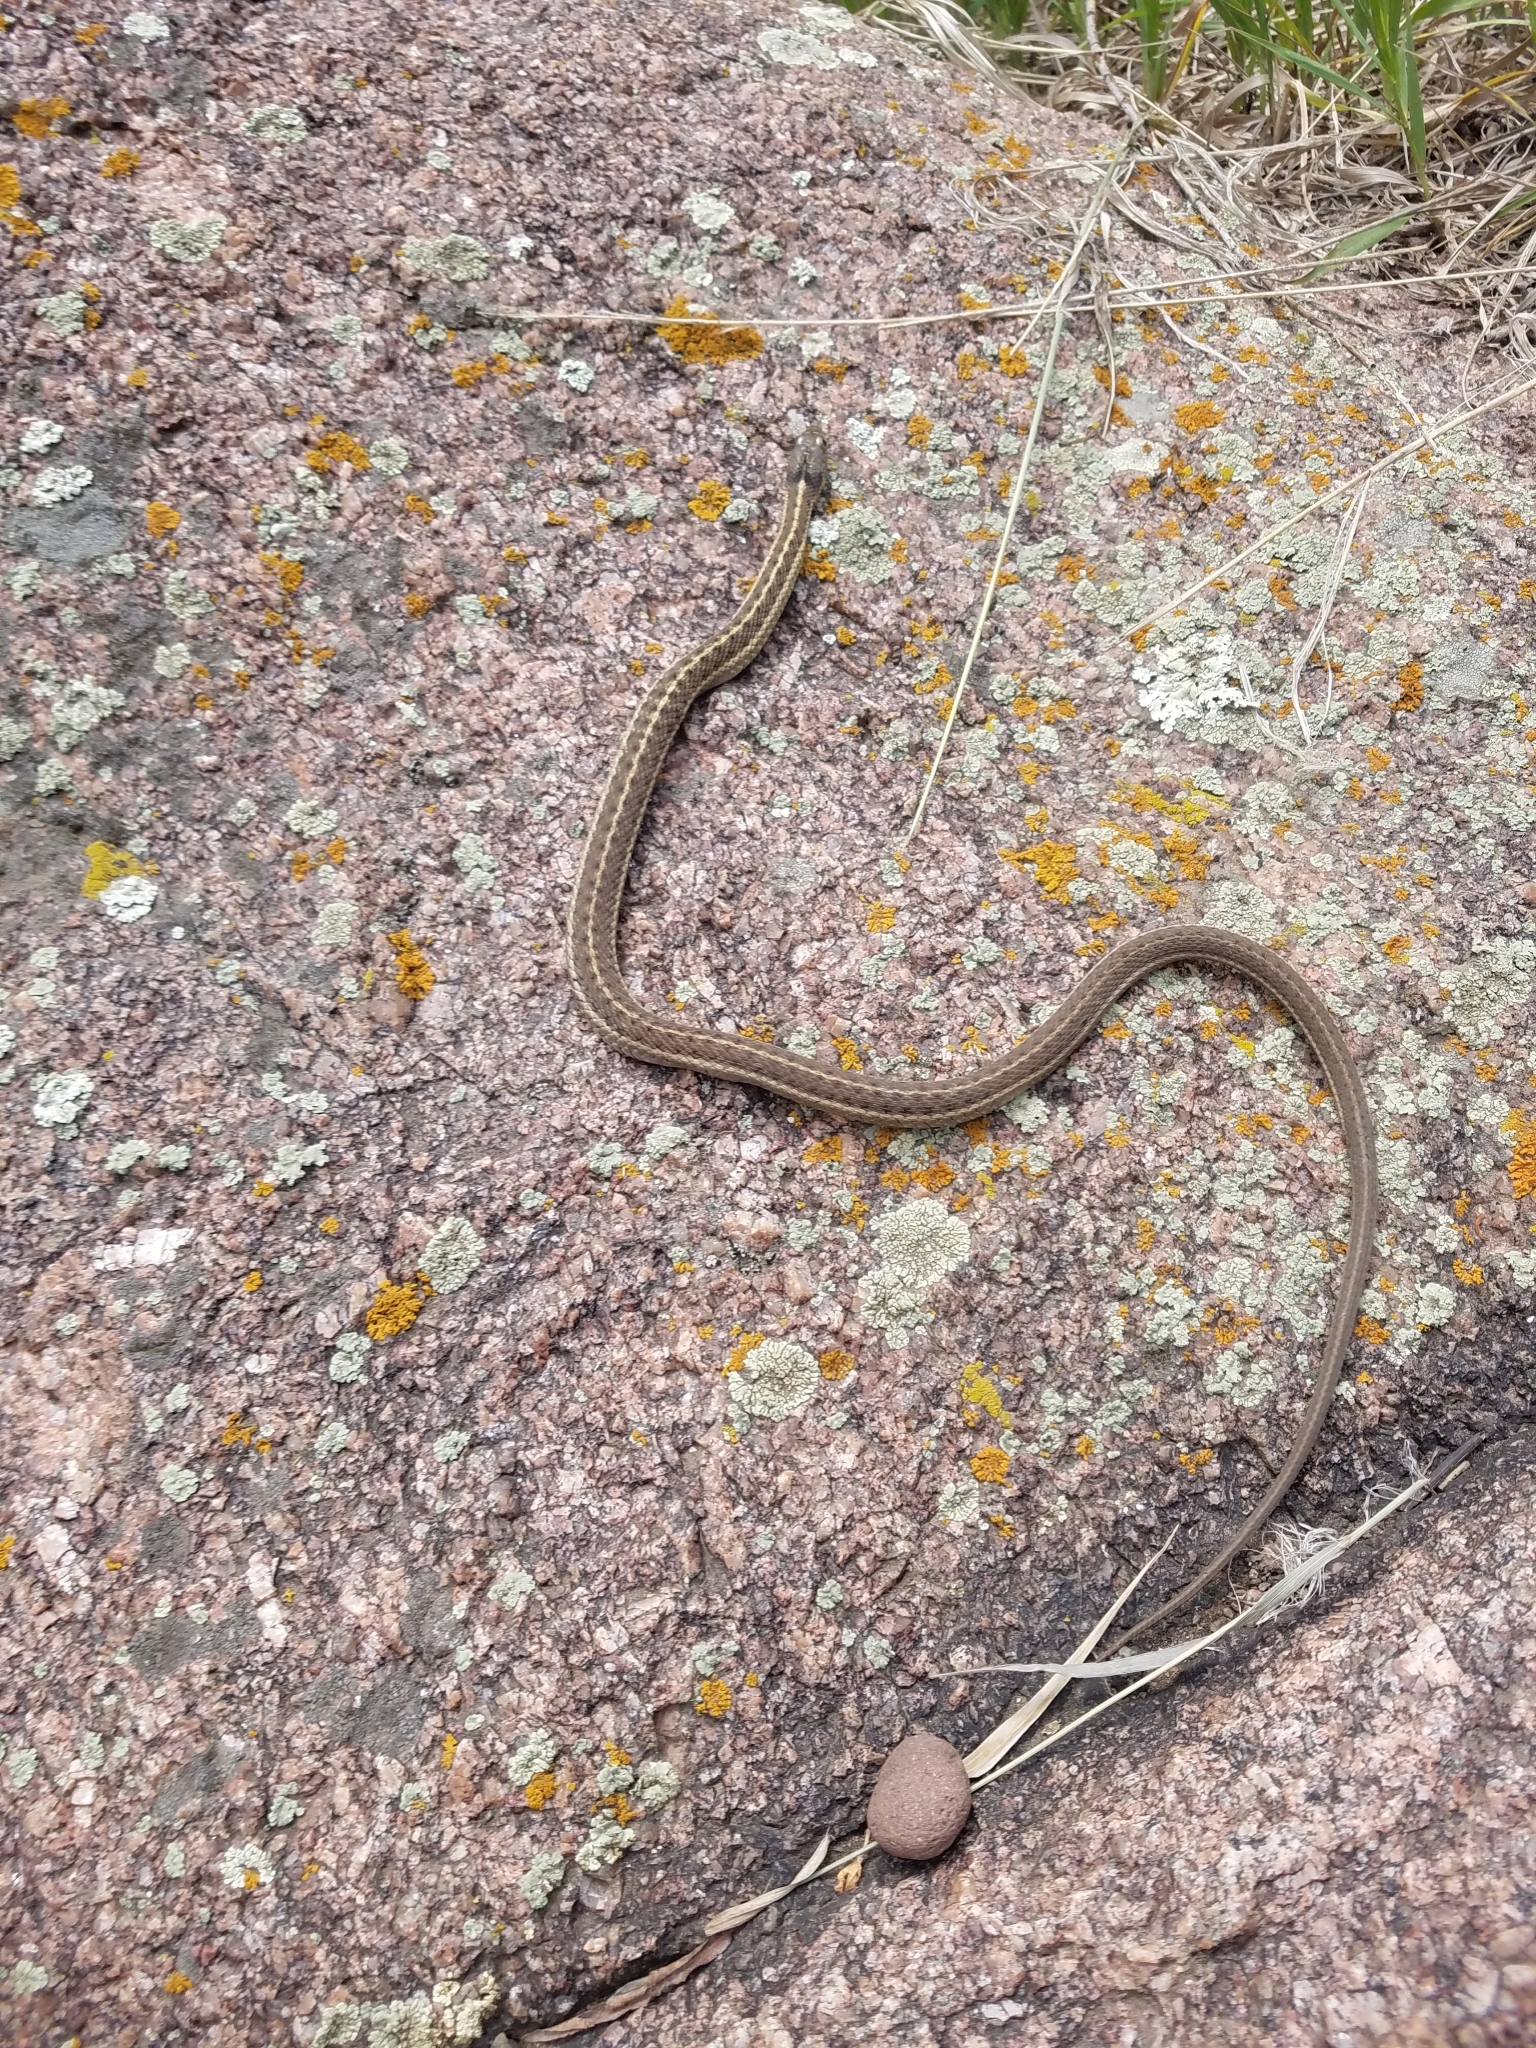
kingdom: Animalia
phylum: Chordata
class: Squamata
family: Colubridae
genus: Thamnophis
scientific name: Thamnophis elegans
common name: Western terrestrial garter snake
